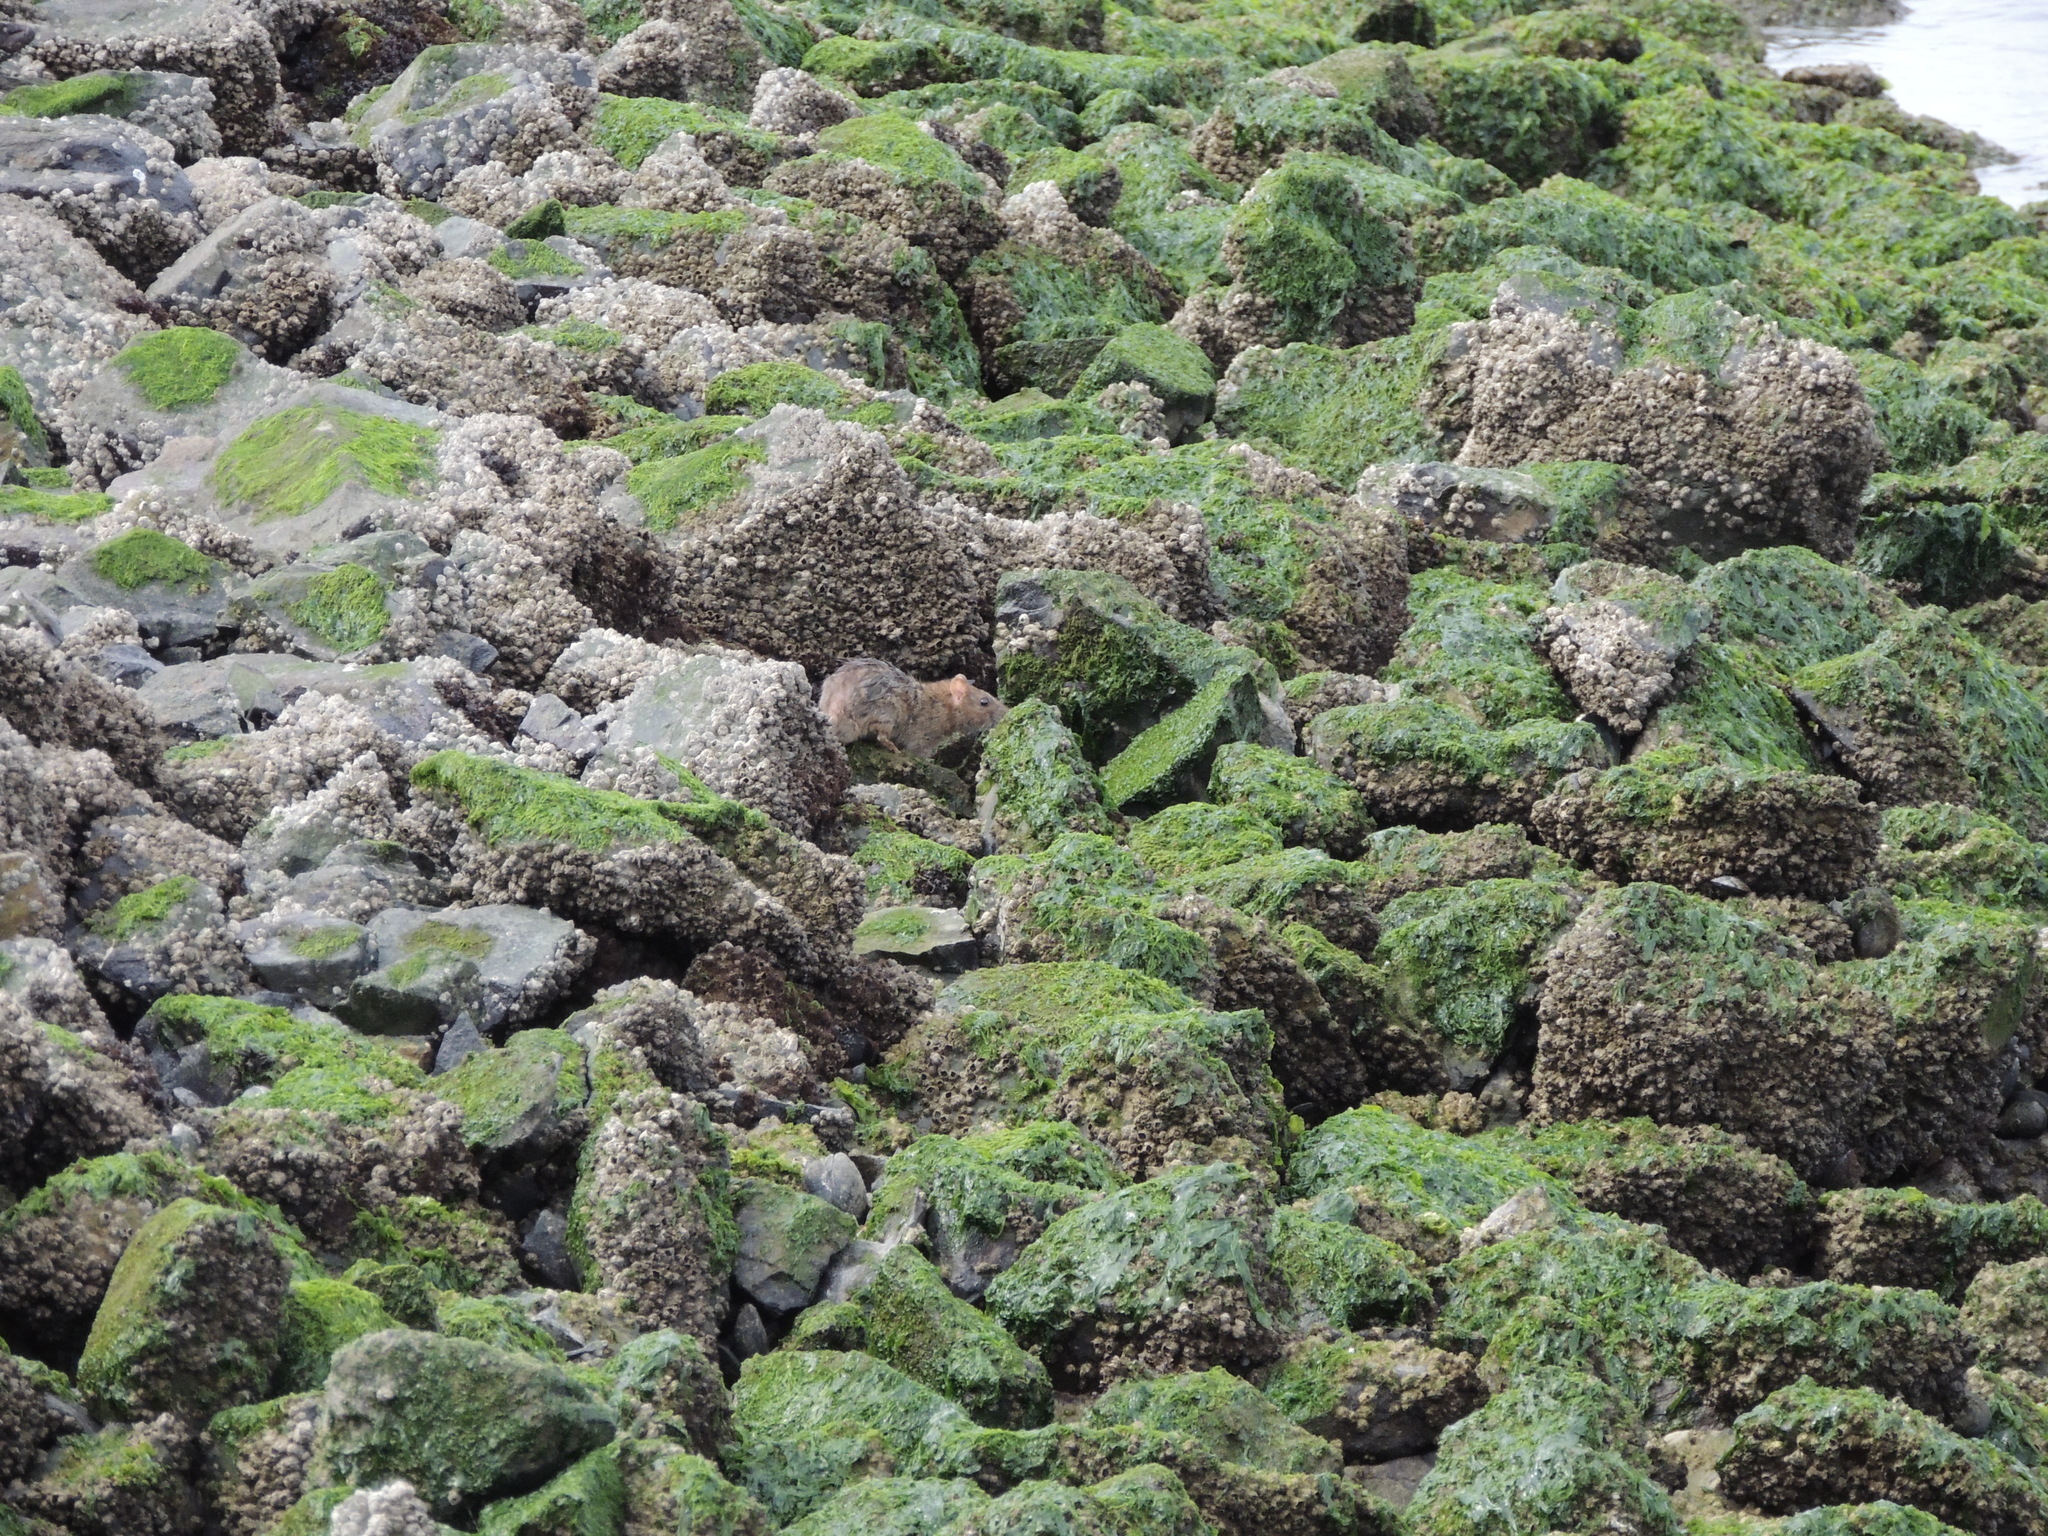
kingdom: Animalia
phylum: Chordata
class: Mammalia
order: Rodentia
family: Muridae
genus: Rattus
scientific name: Rattus norvegicus
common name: Brown rat
